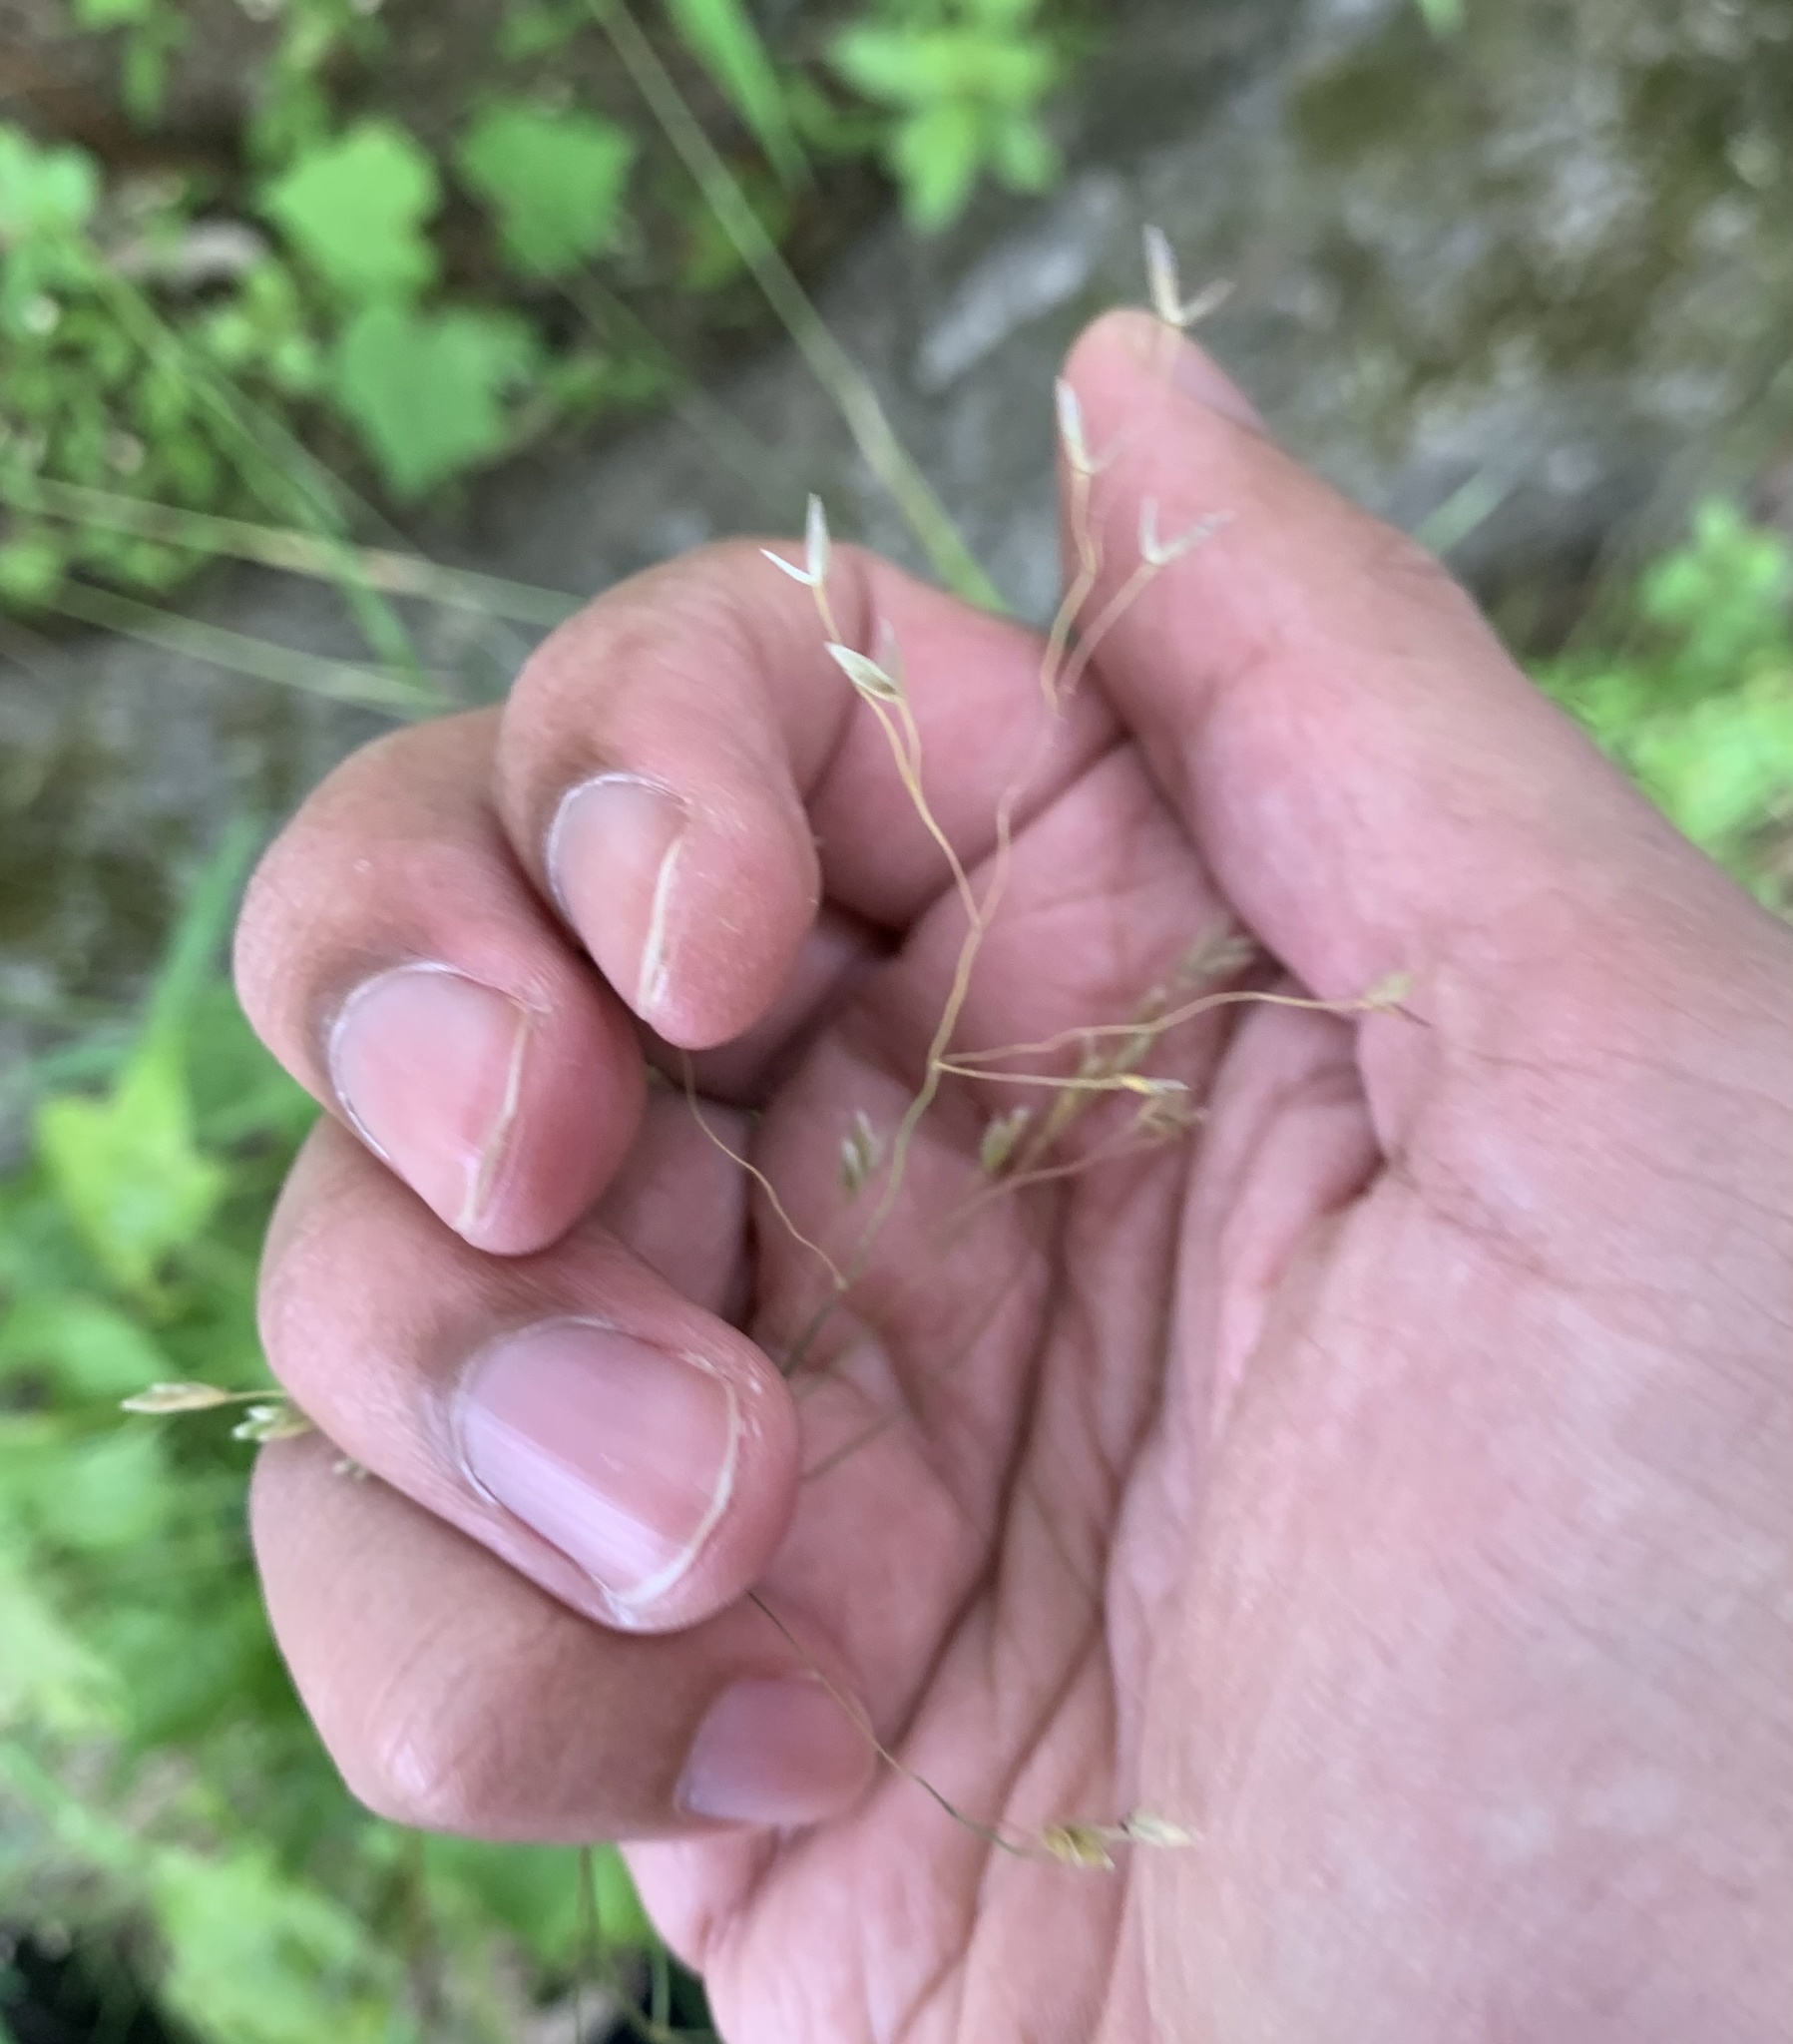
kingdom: Plantae
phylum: Tracheophyta
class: Liliopsida
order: Poales
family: Poaceae
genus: Poa
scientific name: Poa autumnalis
